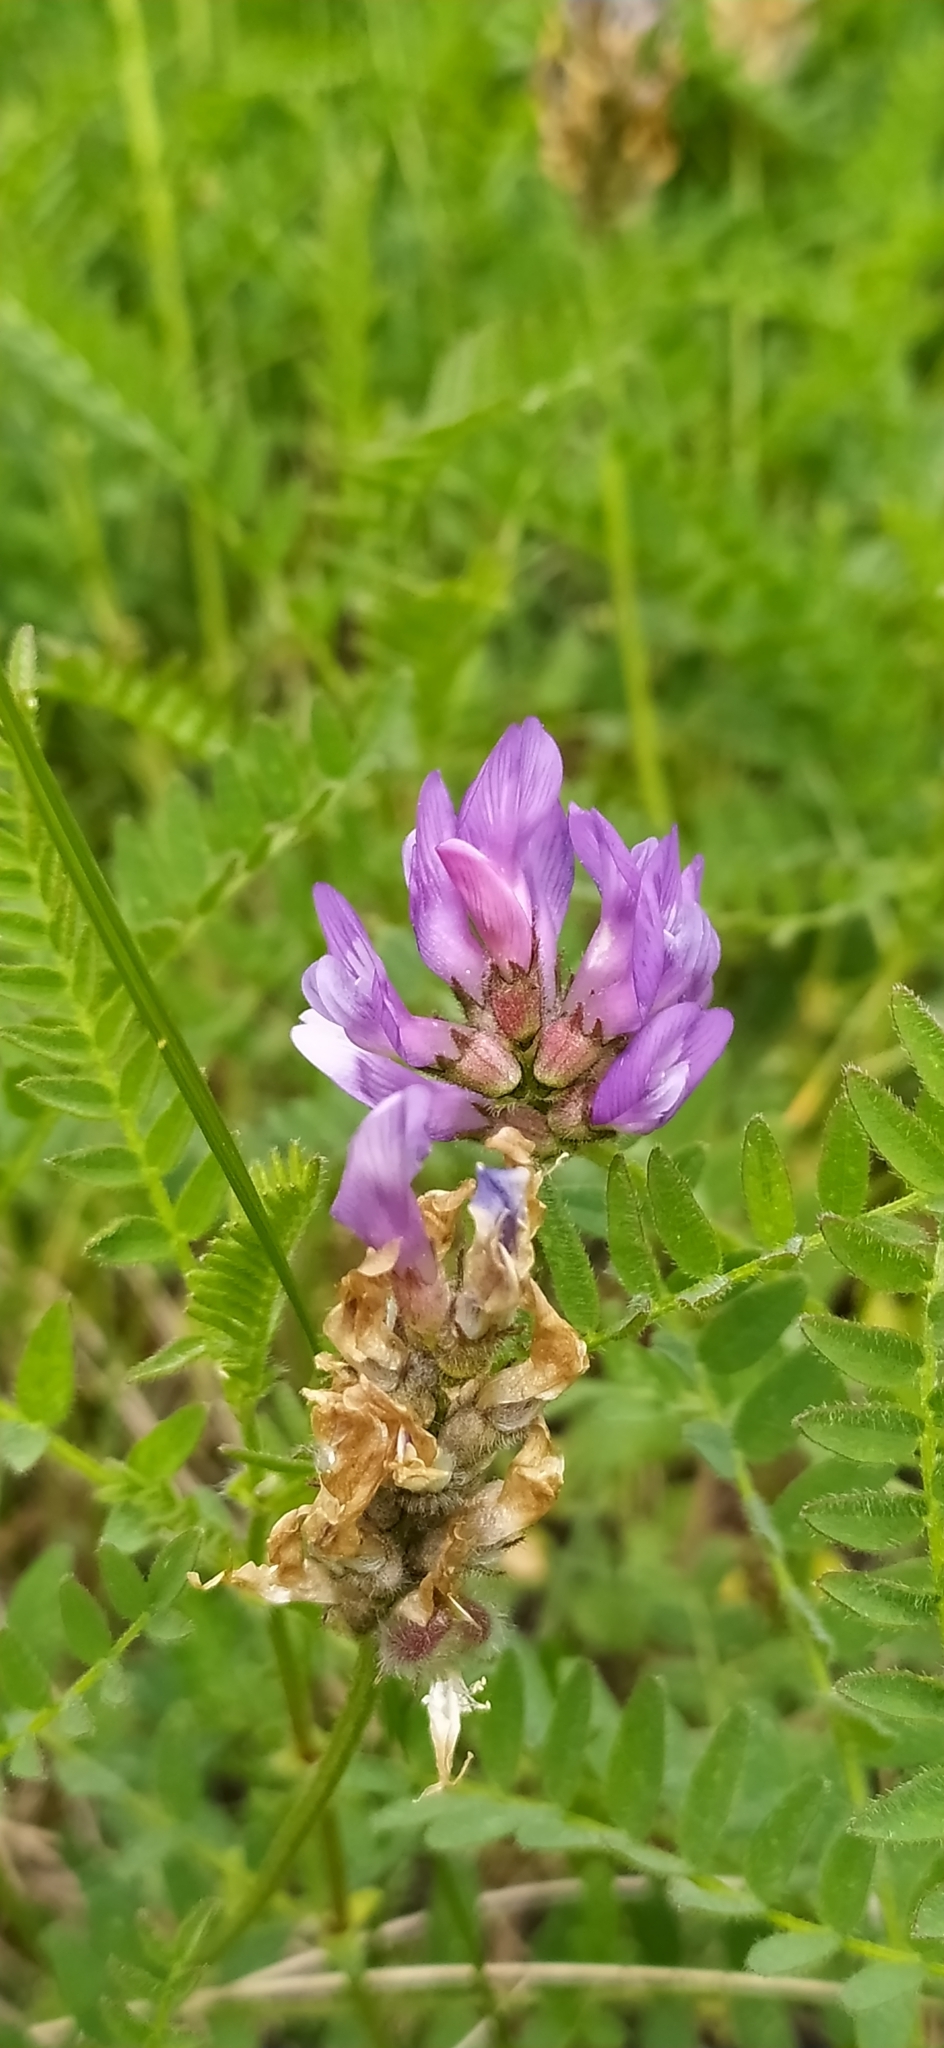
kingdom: Plantae
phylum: Tracheophyta
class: Magnoliopsida
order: Fabales
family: Fabaceae
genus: Astragalus
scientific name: Astragalus danicus
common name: Purple milk-vetch
